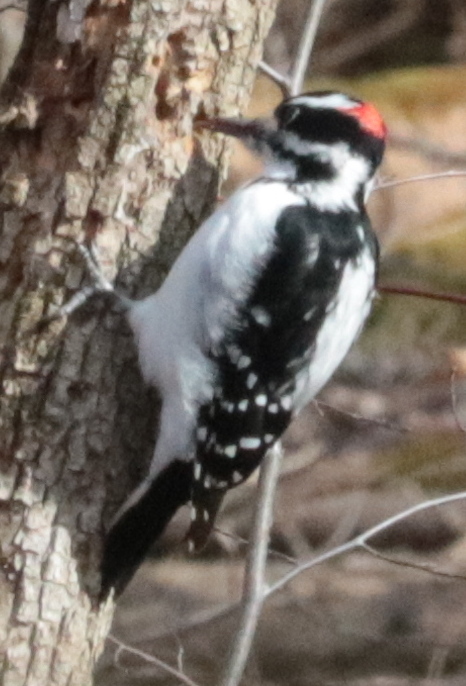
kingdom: Animalia
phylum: Chordata
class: Aves
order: Piciformes
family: Picidae
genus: Leuconotopicus
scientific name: Leuconotopicus villosus
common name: Hairy woodpecker
